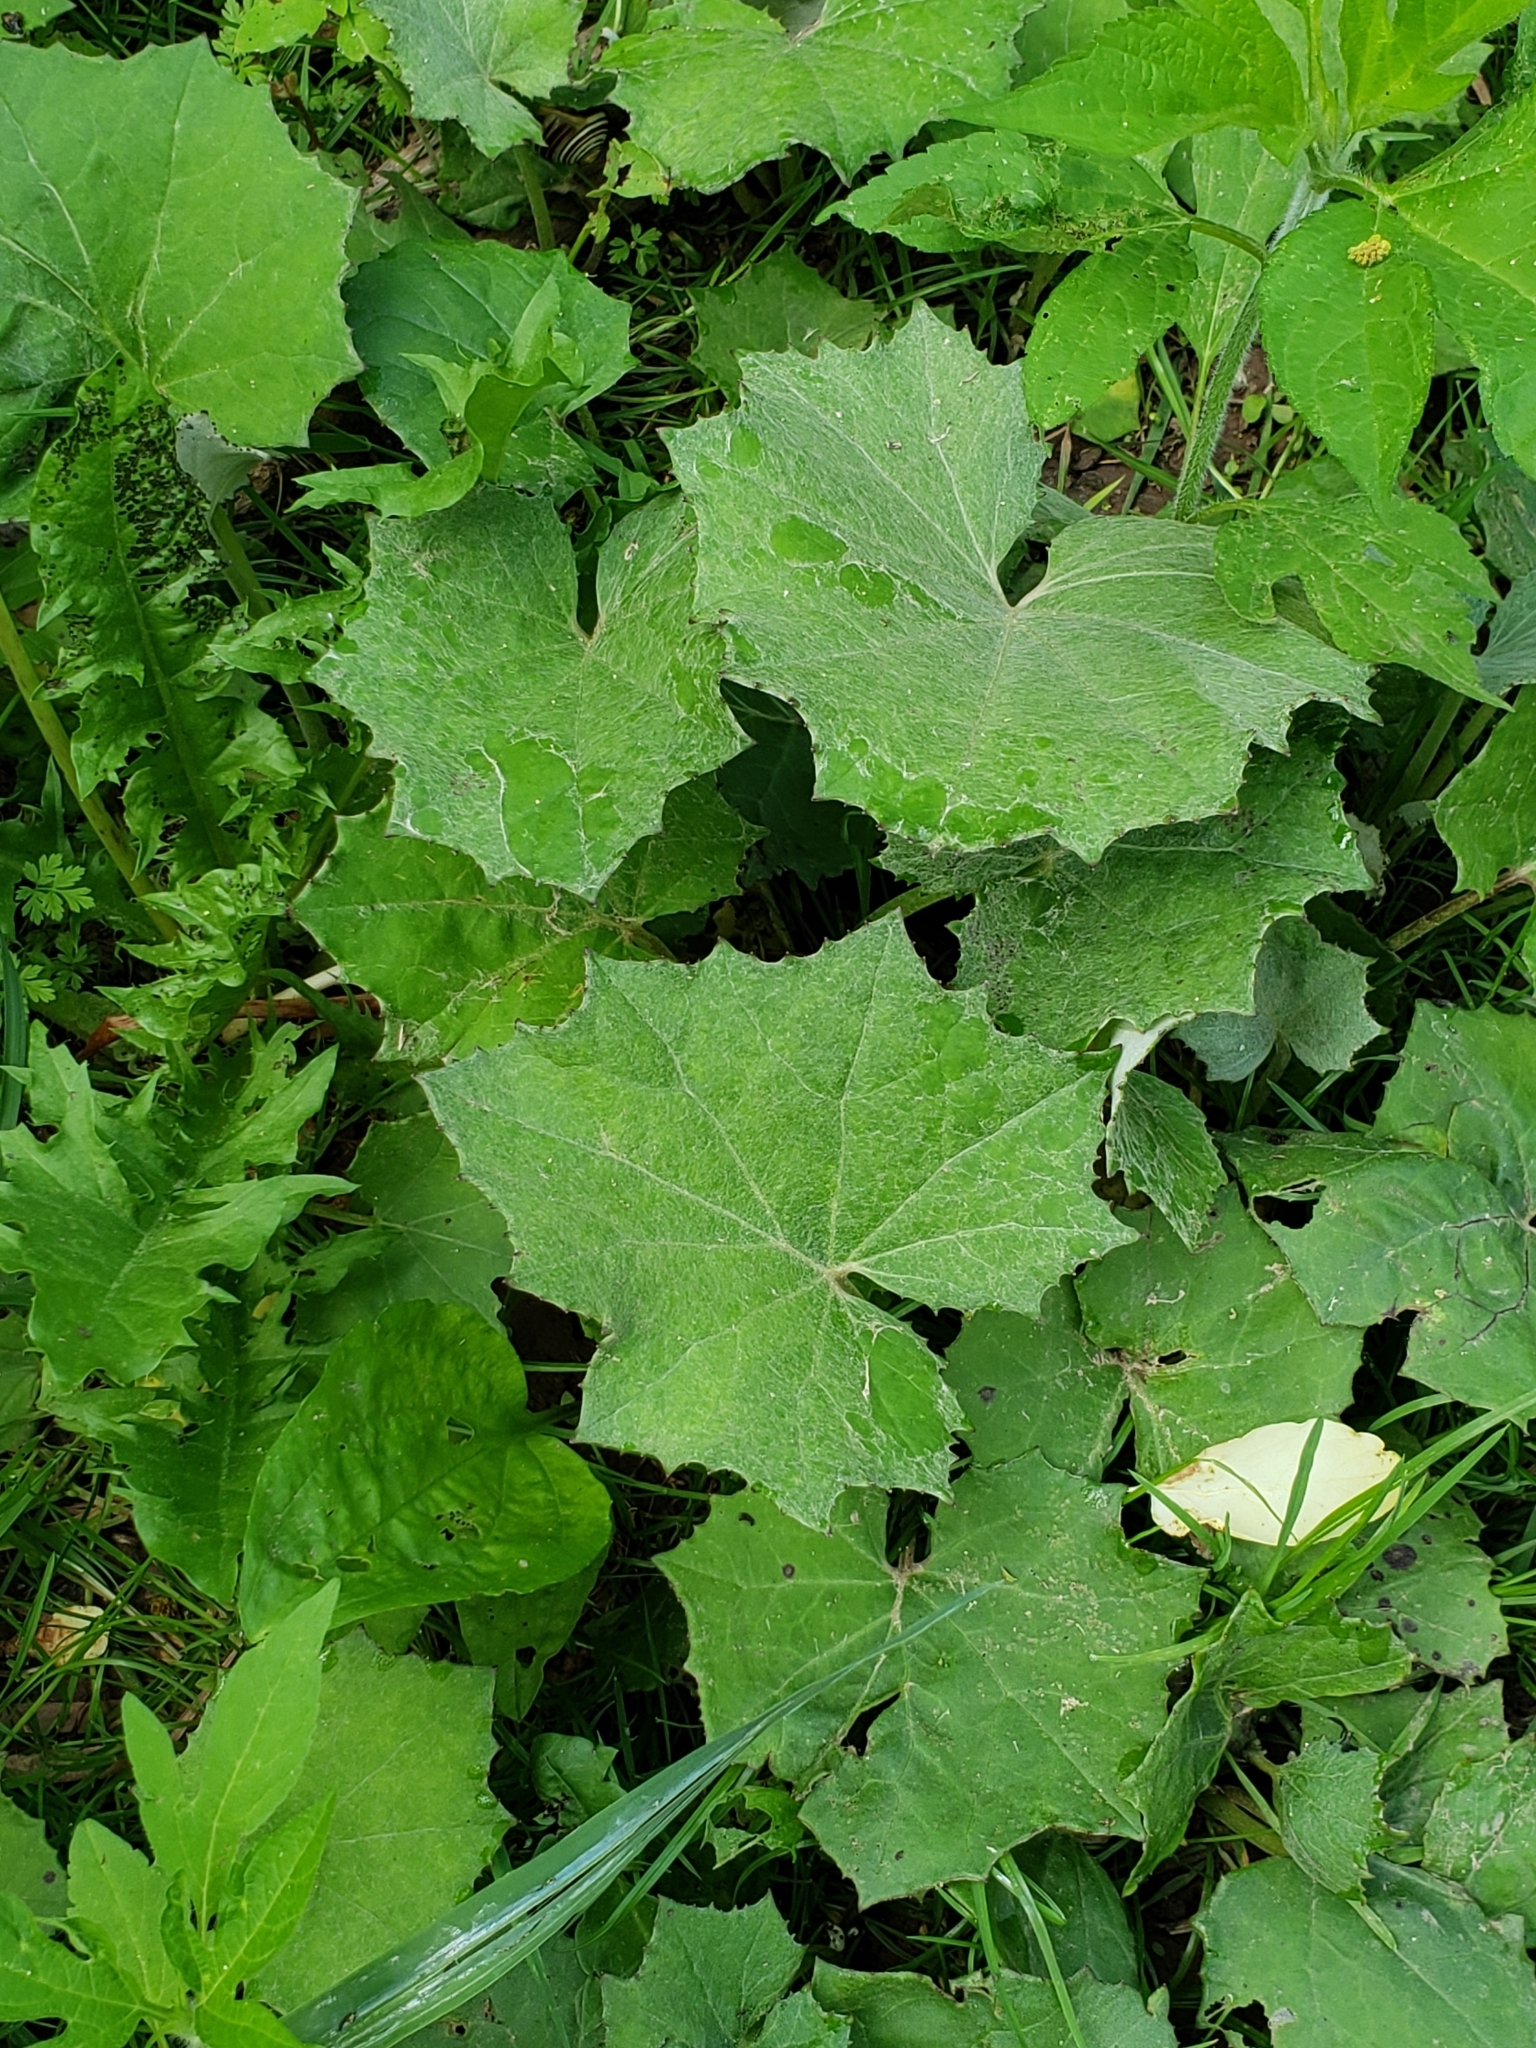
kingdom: Plantae
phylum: Tracheophyta
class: Magnoliopsida
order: Asterales
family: Asteraceae
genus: Tussilago
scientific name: Tussilago farfara
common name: Coltsfoot
